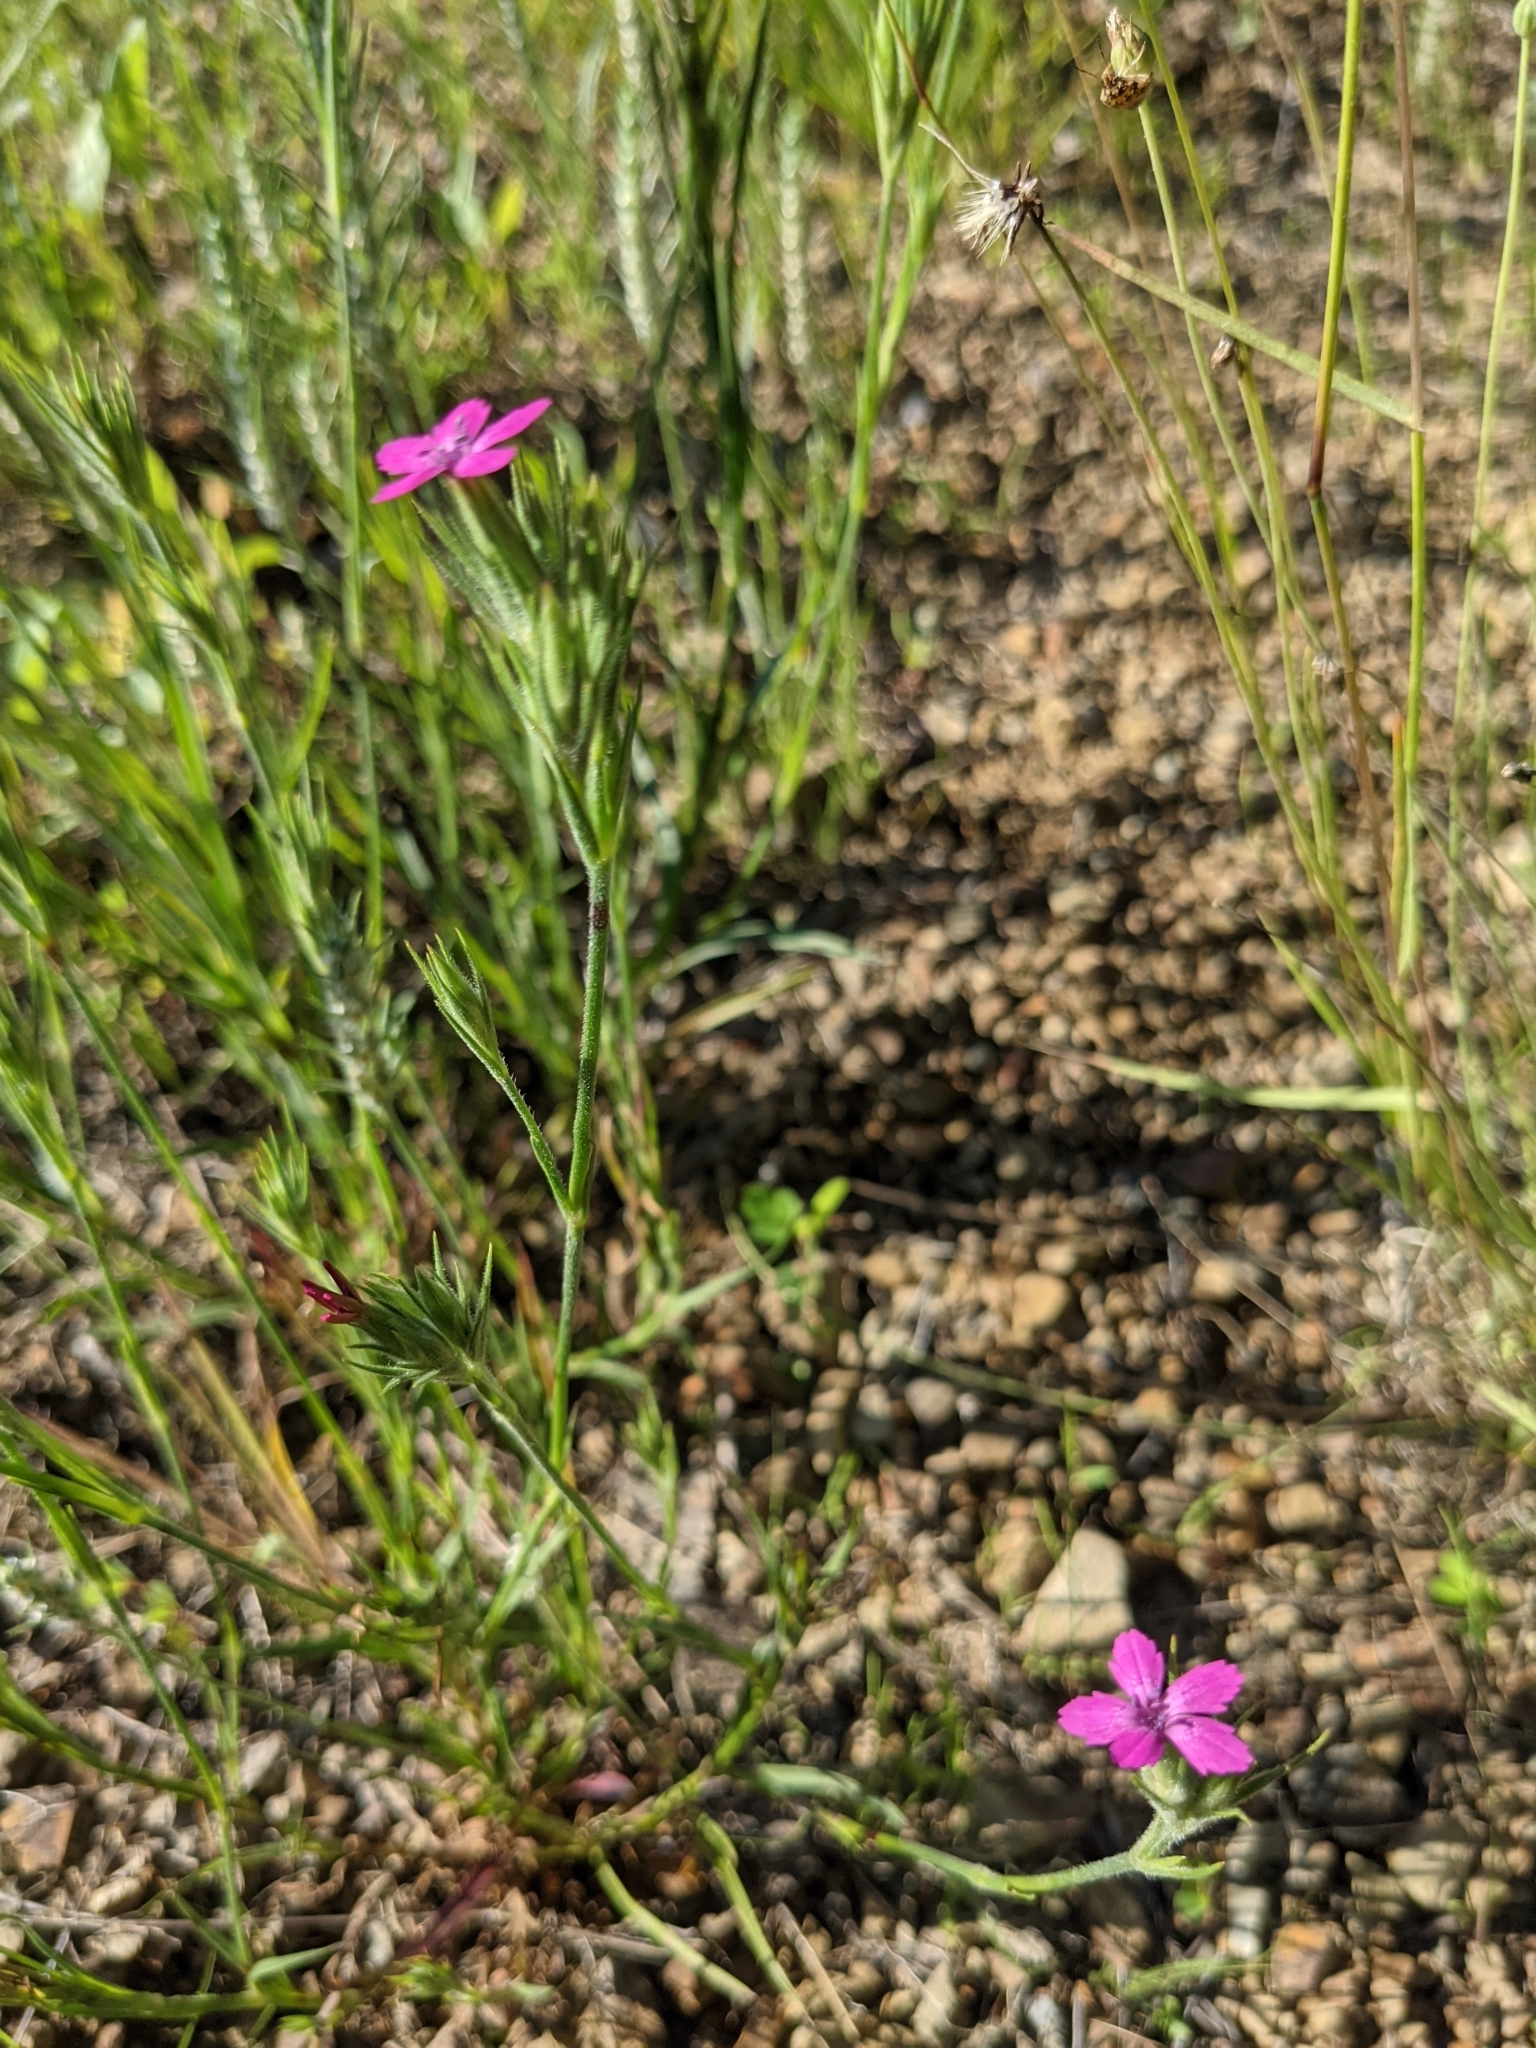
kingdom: Plantae
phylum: Tracheophyta
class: Magnoliopsida
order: Caryophyllales
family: Caryophyllaceae
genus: Dianthus
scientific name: Dianthus armeria
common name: Deptford pink
